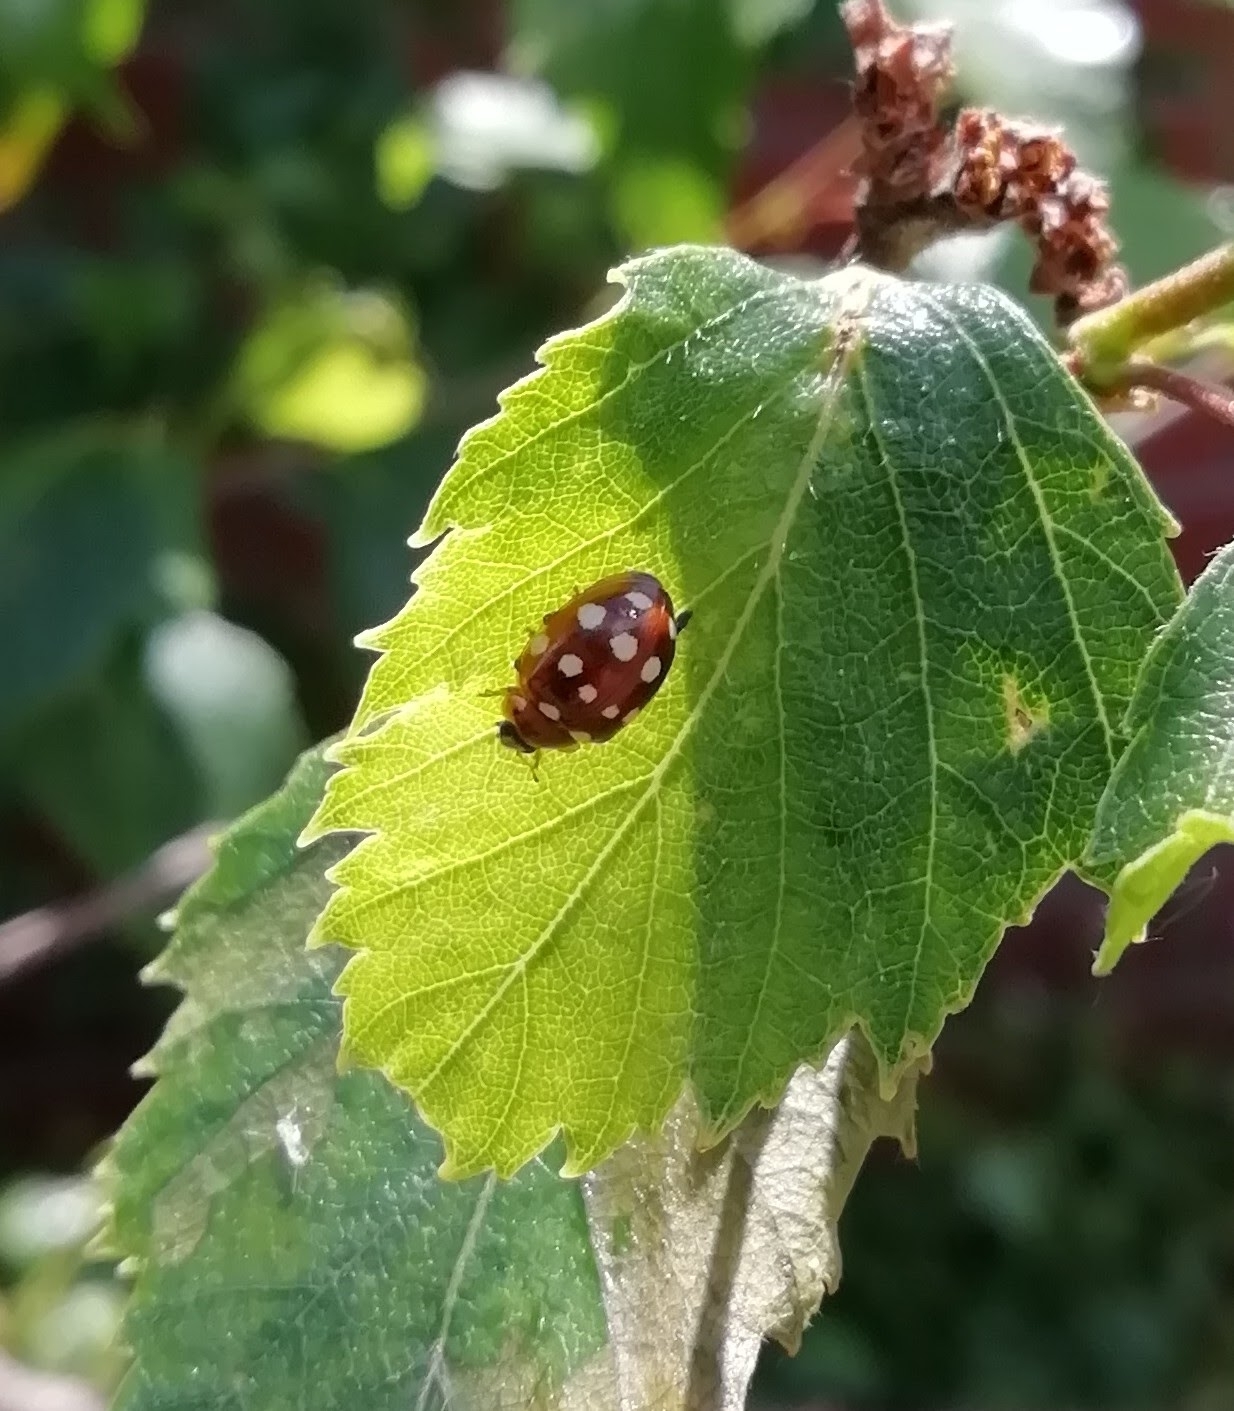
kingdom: Animalia
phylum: Arthropoda
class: Insecta
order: Coleoptera
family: Coccinellidae
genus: Calvia
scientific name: Calvia quatuordecimguttata
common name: Cream-spot ladybird
